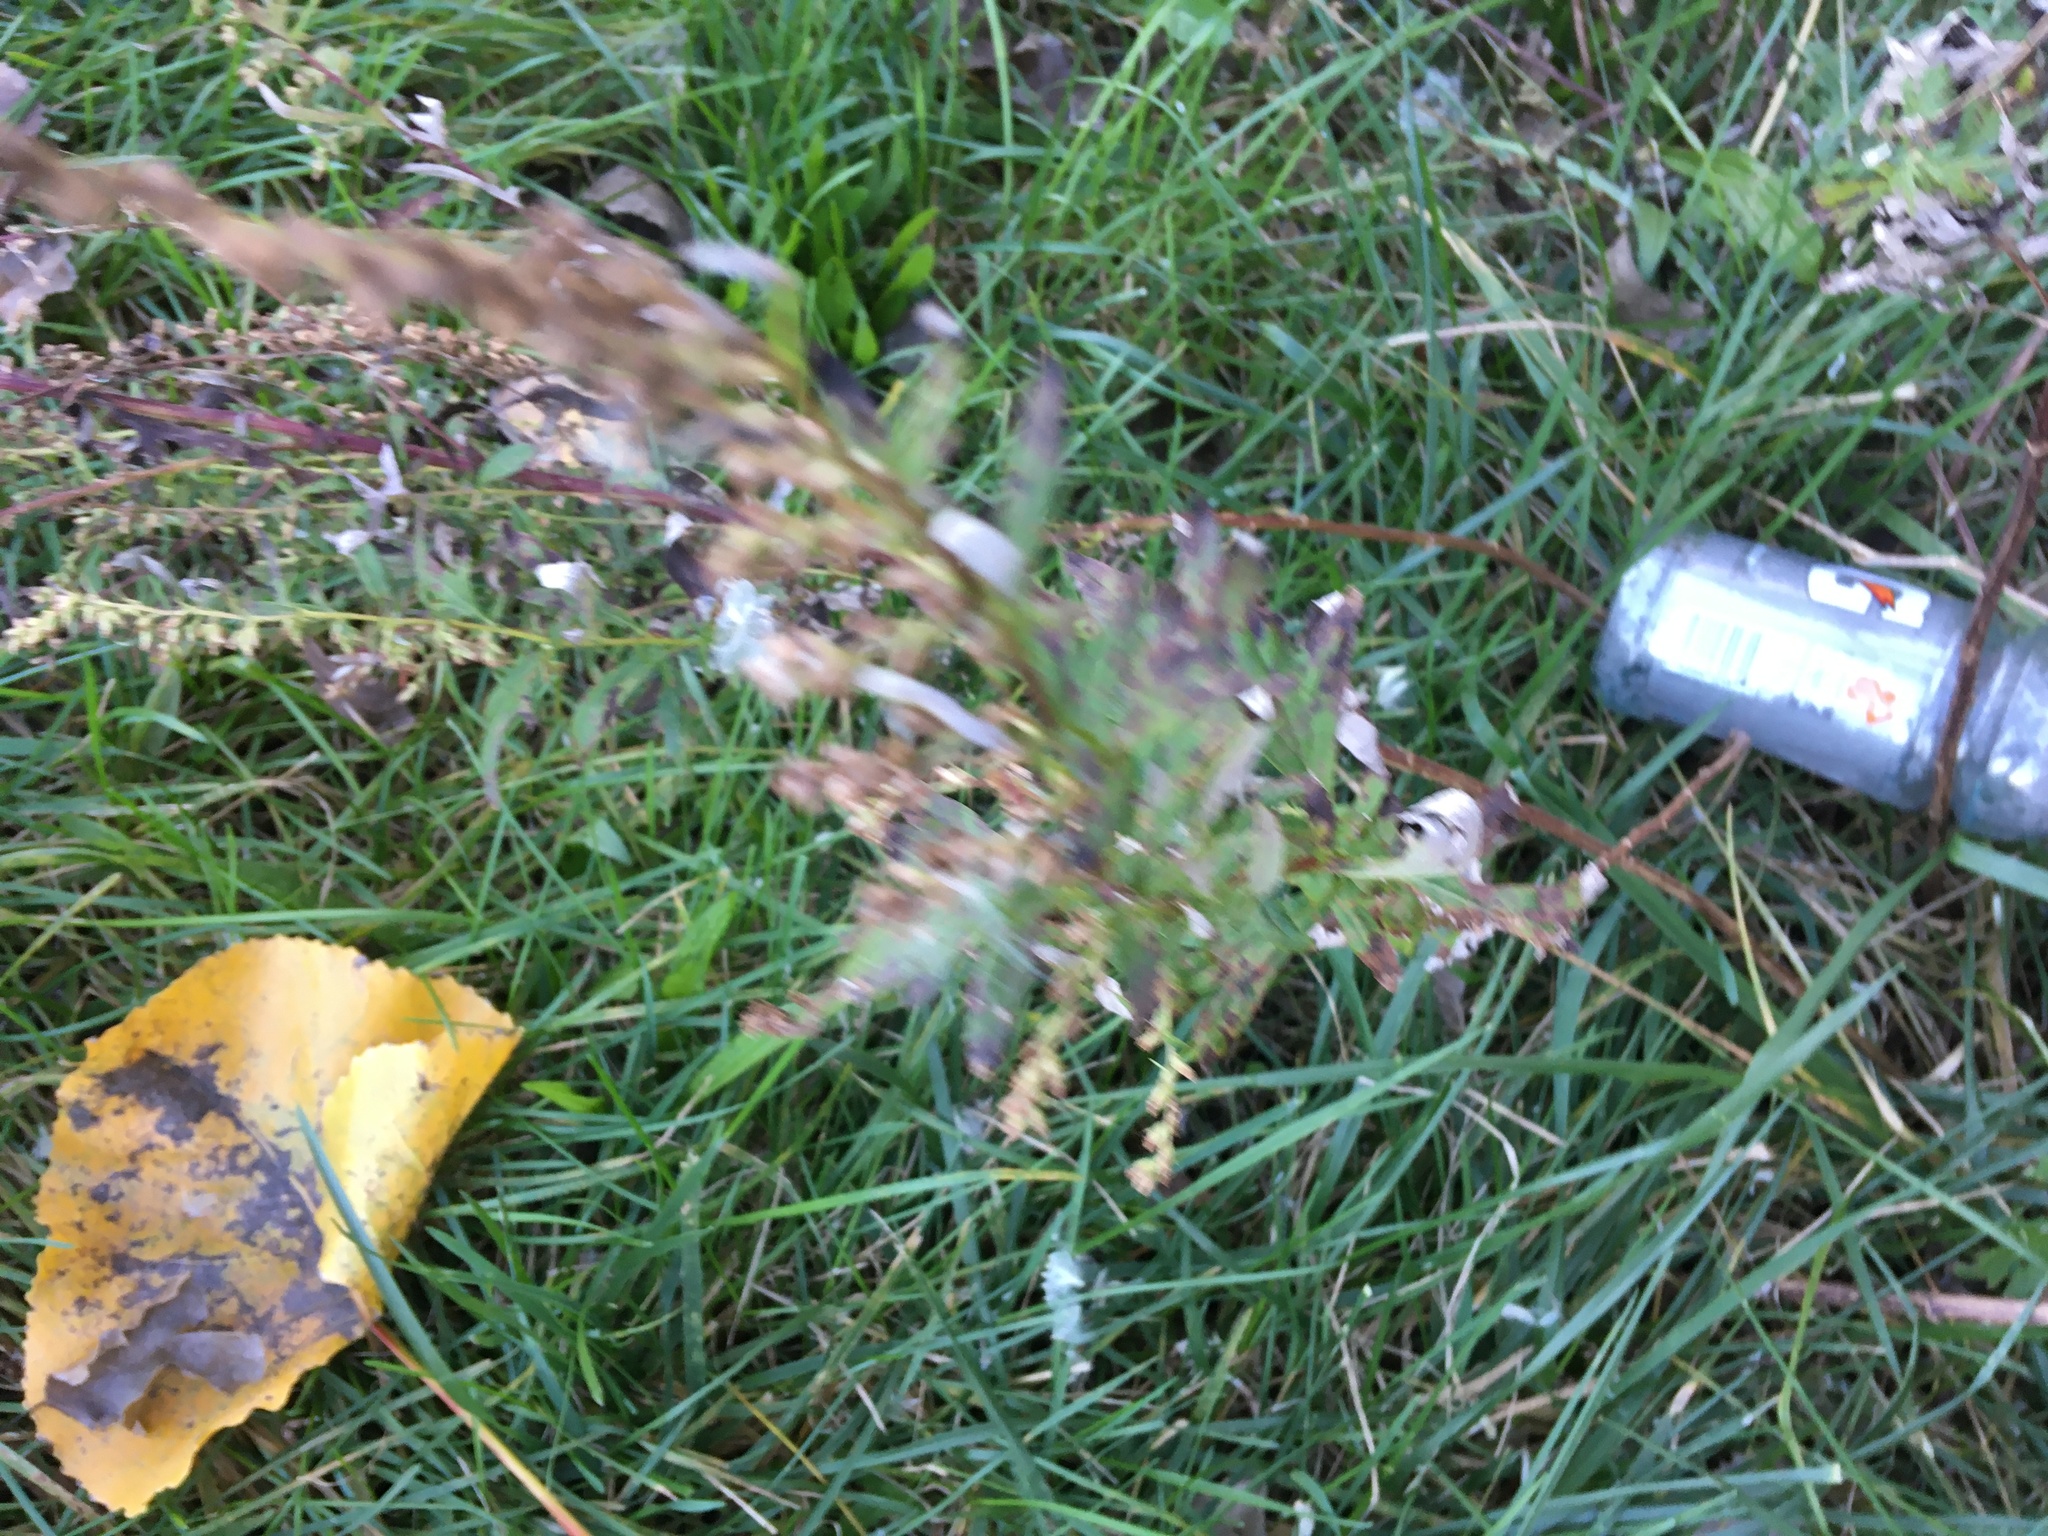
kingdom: Plantae
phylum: Tracheophyta
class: Magnoliopsida
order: Asterales
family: Asteraceae
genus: Artemisia
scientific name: Artemisia vulgaris
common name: Mugwort
